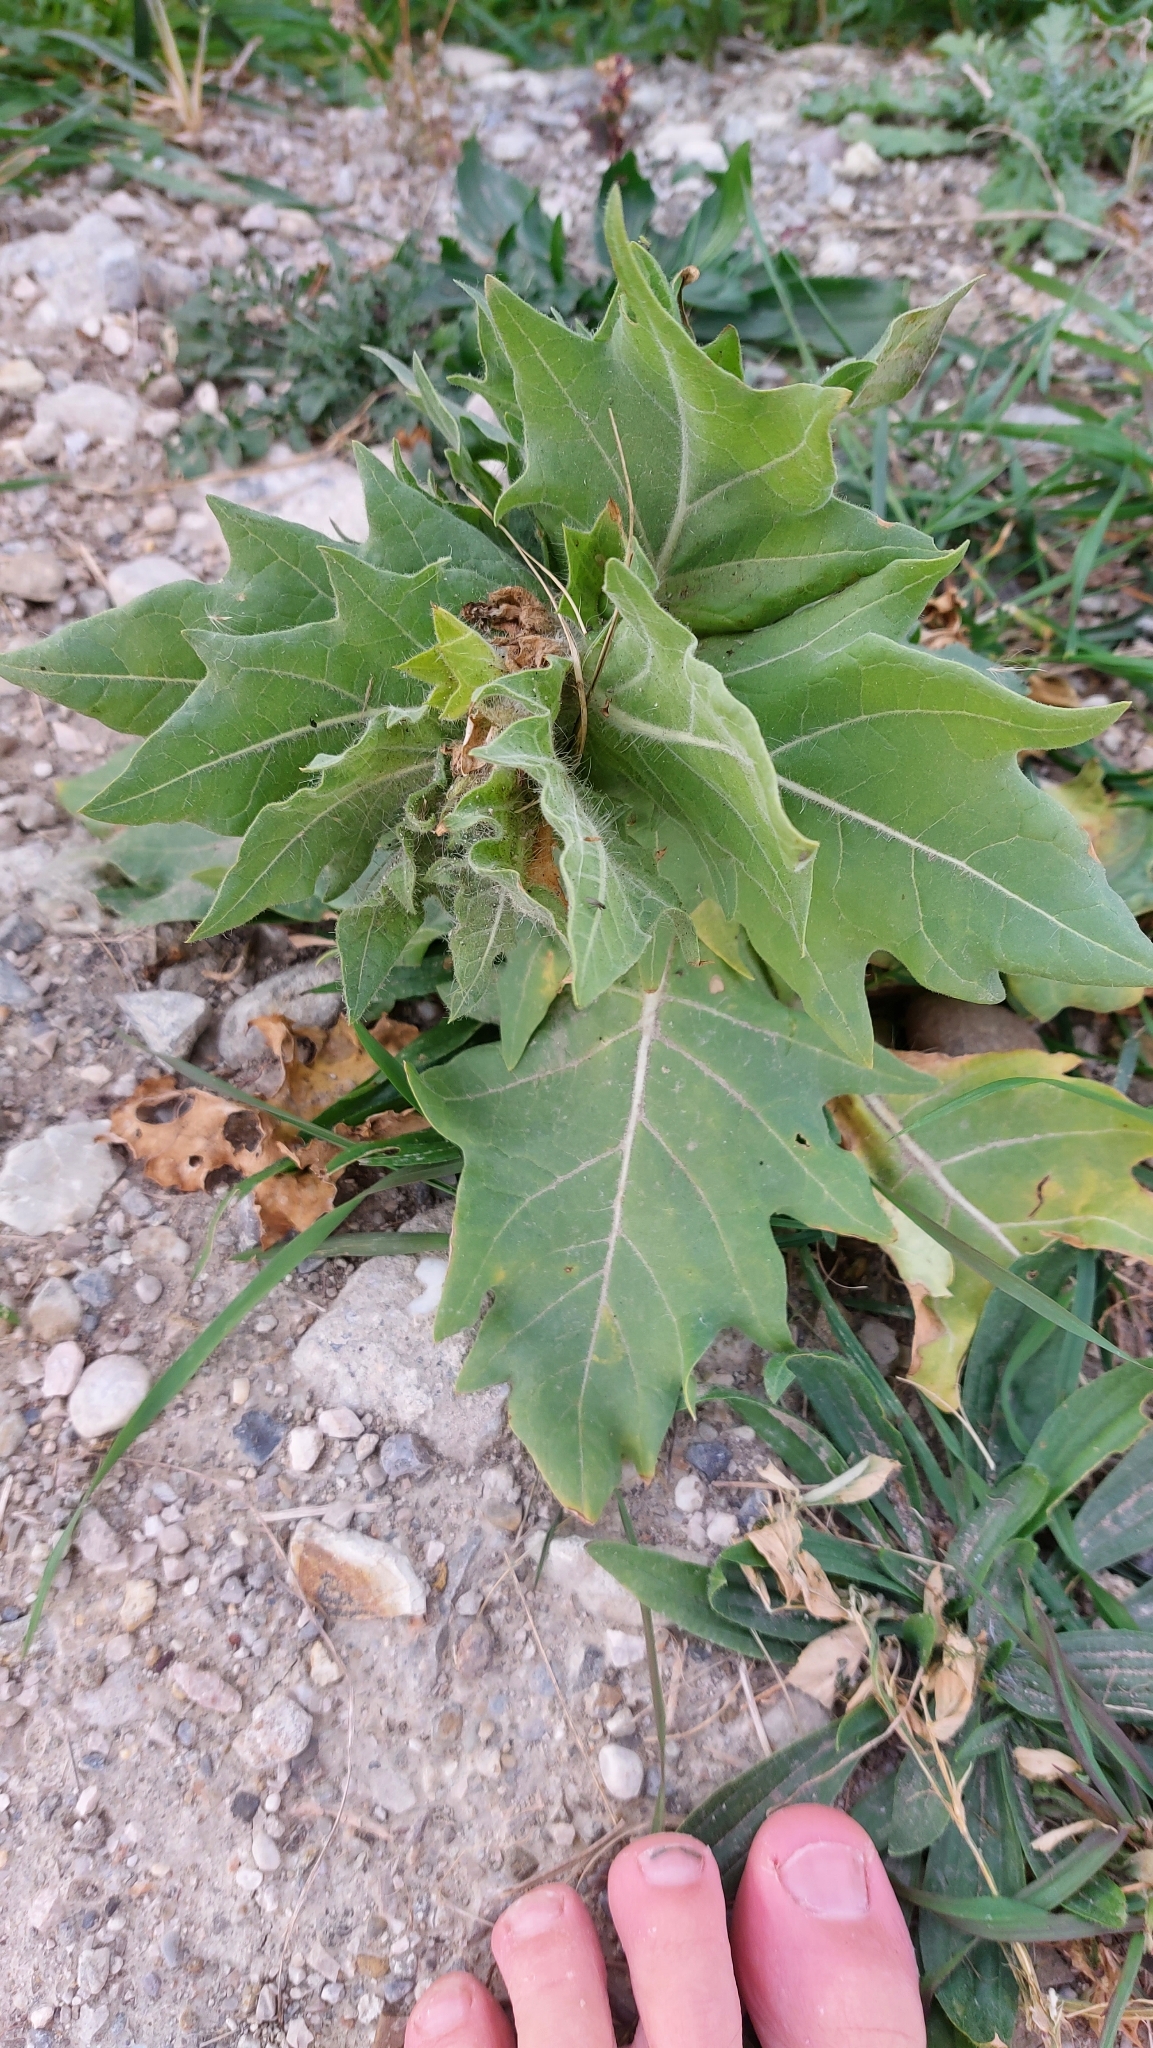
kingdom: Plantae
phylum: Tracheophyta
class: Magnoliopsida
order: Solanales
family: Solanaceae
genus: Hyoscyamus
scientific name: Hyoscyamus niger
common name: Henbane
